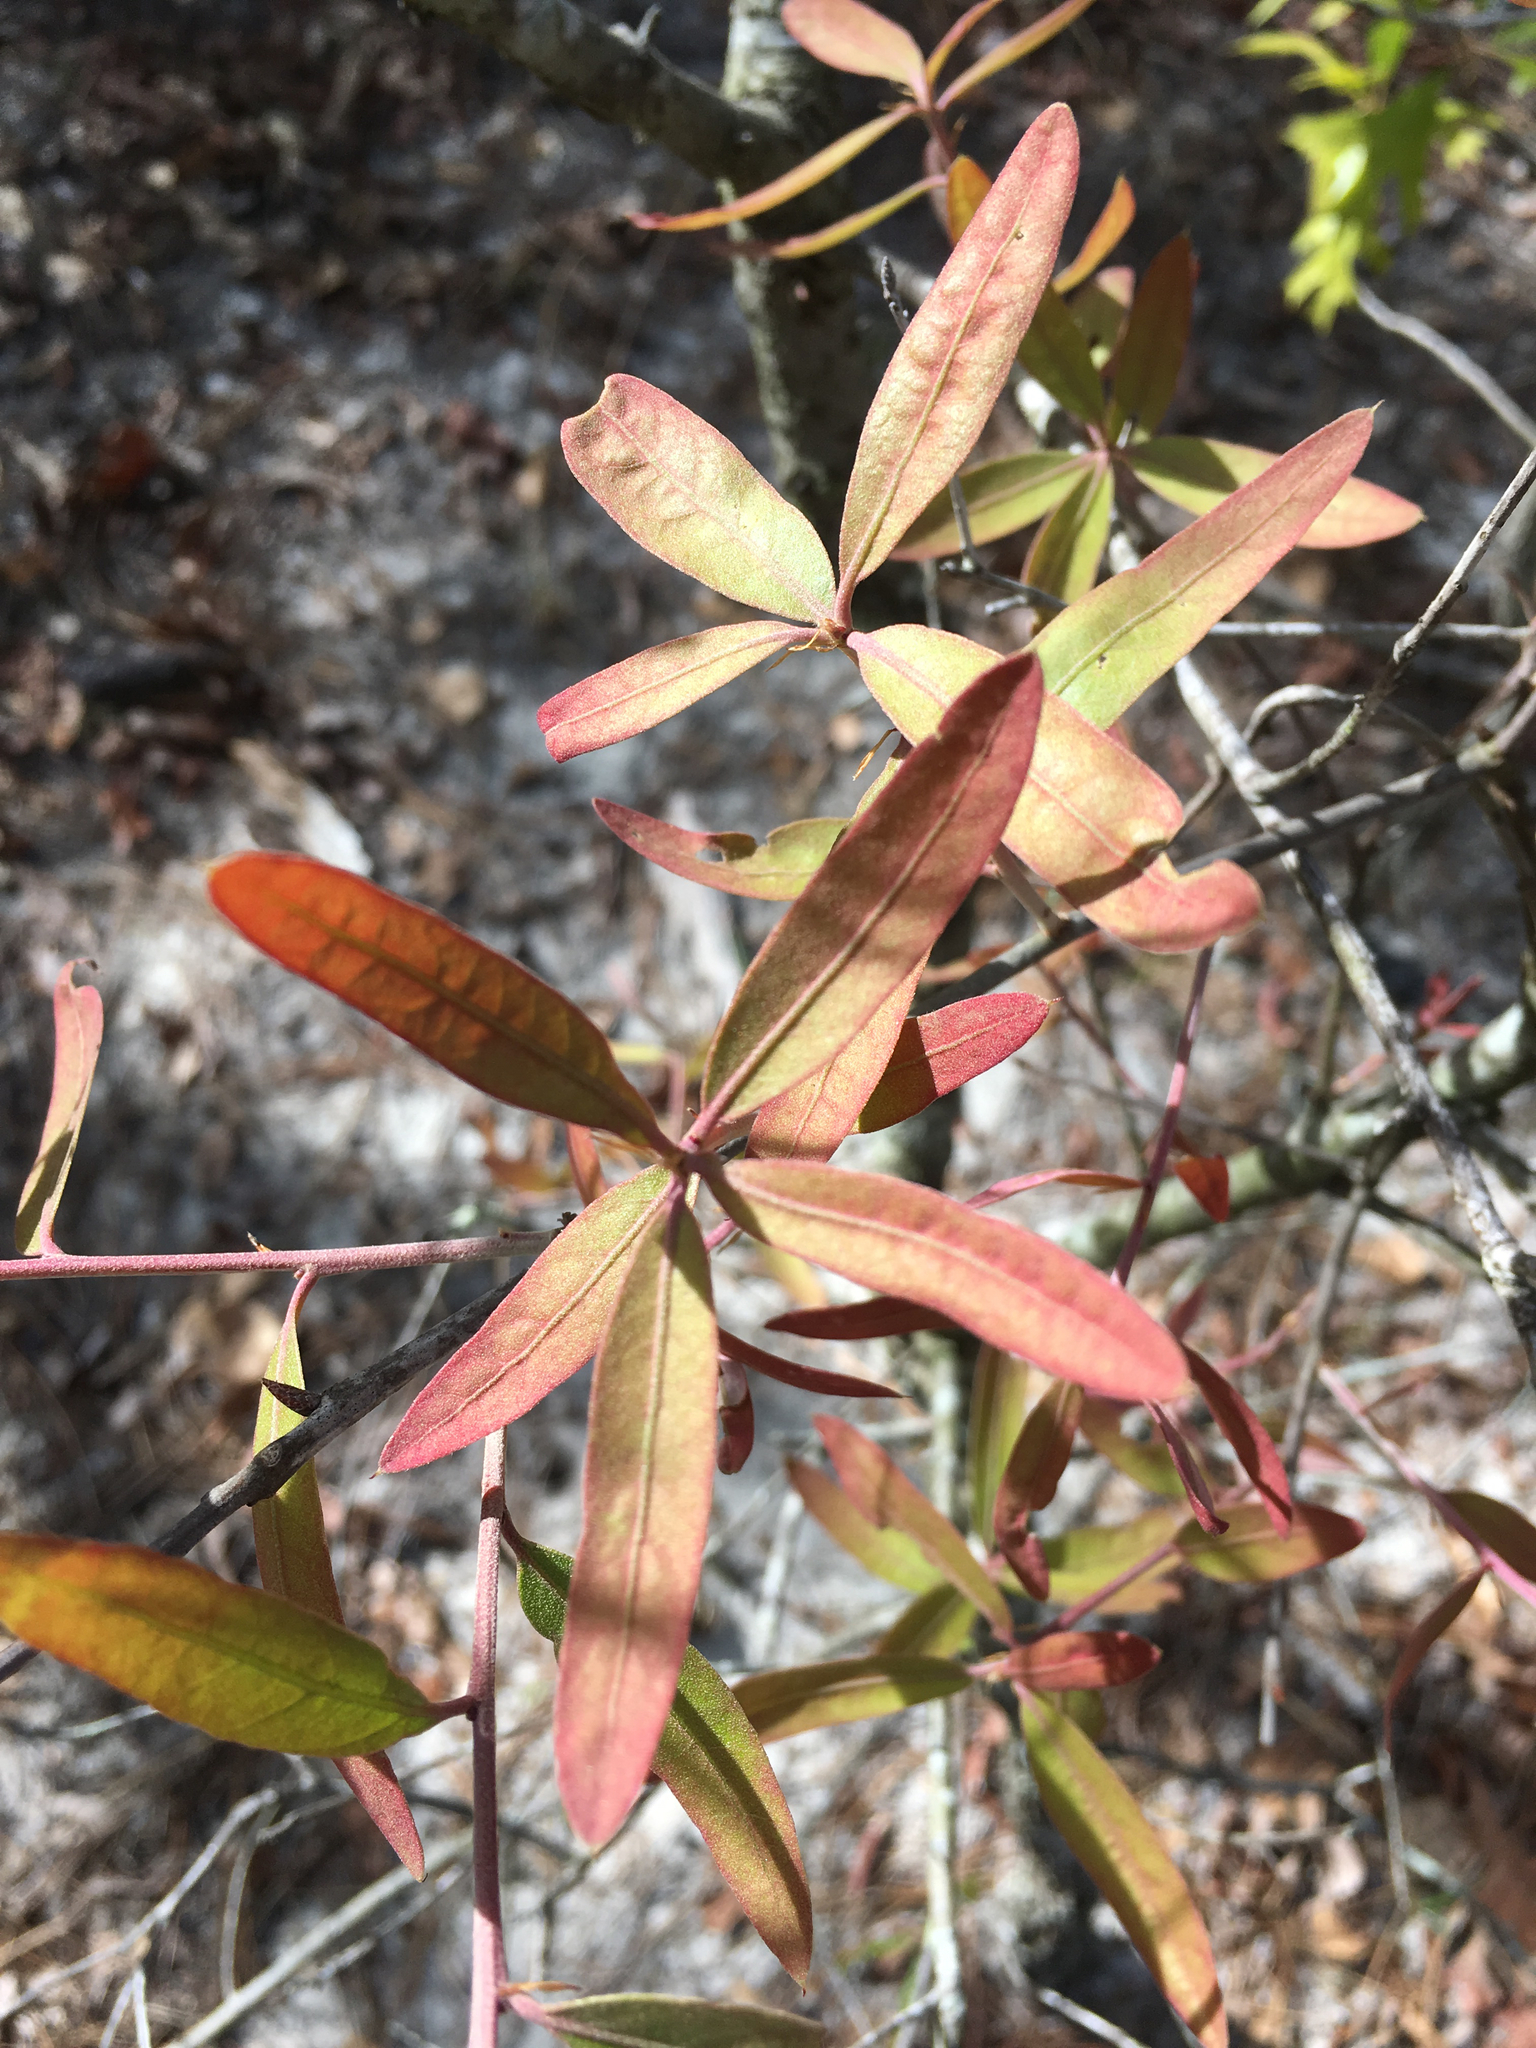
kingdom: Plantae
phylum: Tracheophyta
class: Magnoliopsida
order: Fagales
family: Fagaceae
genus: Quercus
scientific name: Quercus incana
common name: Bluejack oak
